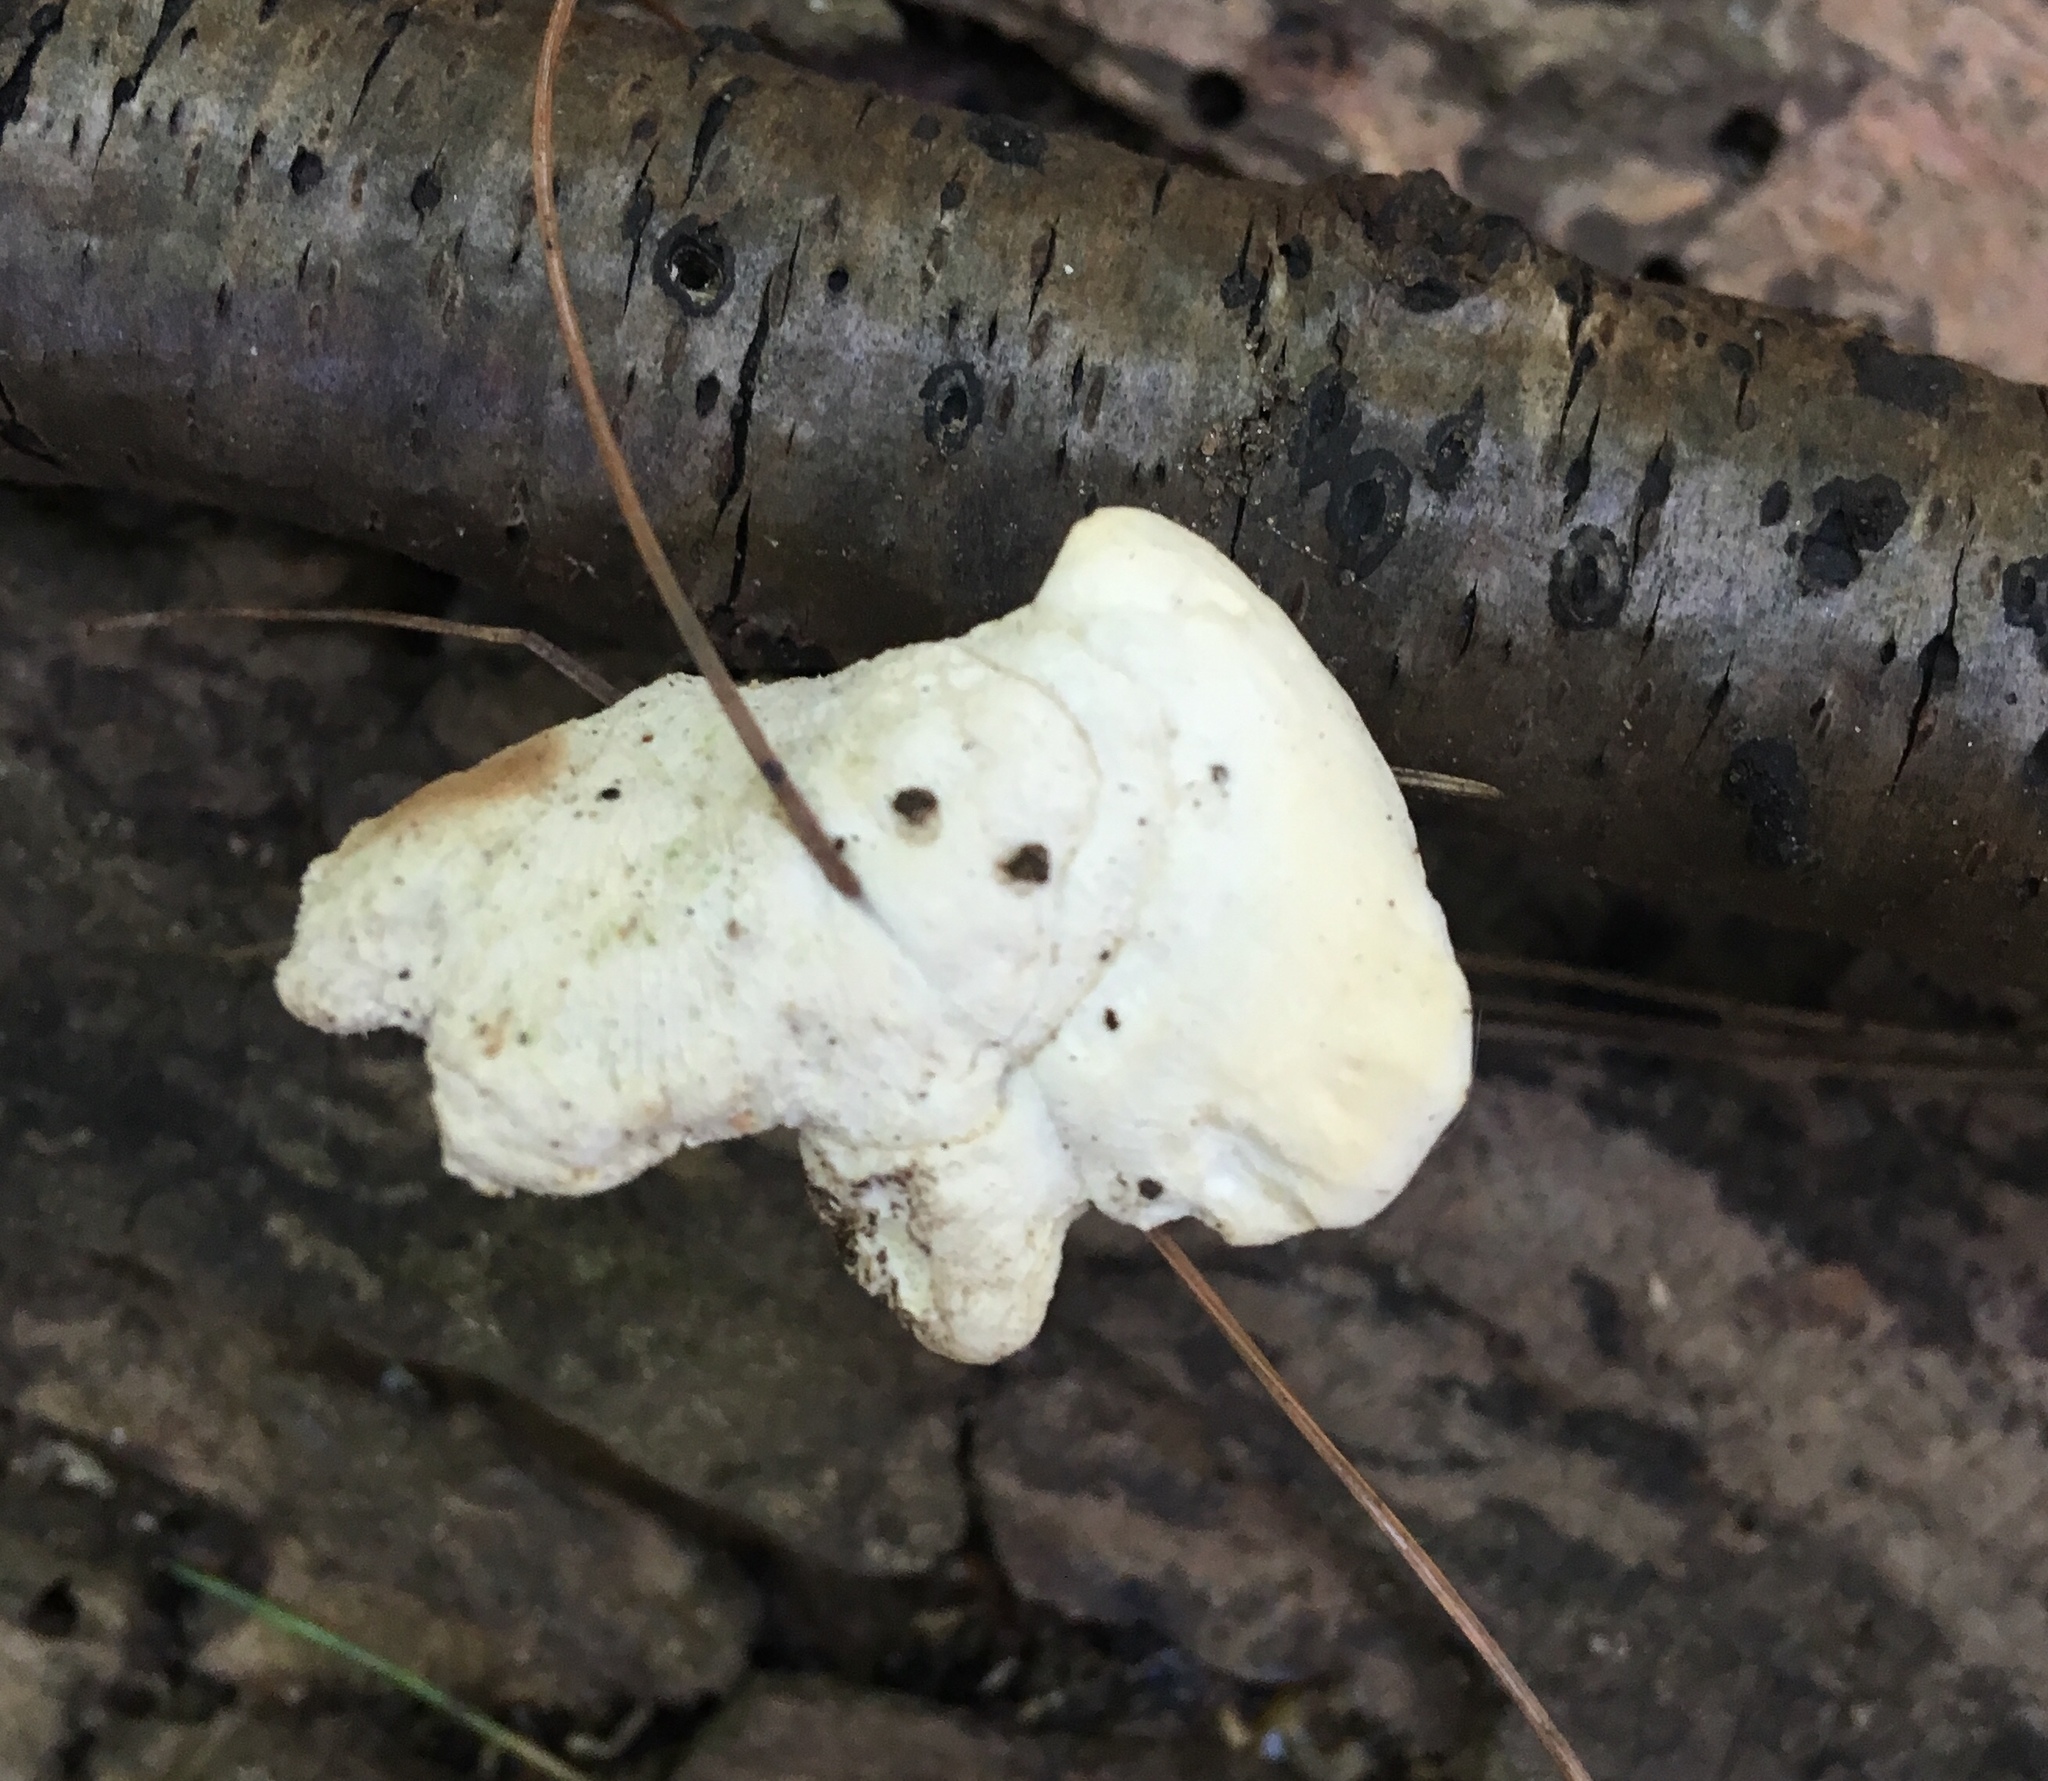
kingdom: Fungi
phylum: Basidiomycota
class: Agaricomycetes
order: Polyporales
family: Steccherinaceae
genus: Loweomyces
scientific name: Loweomyces fractipes
